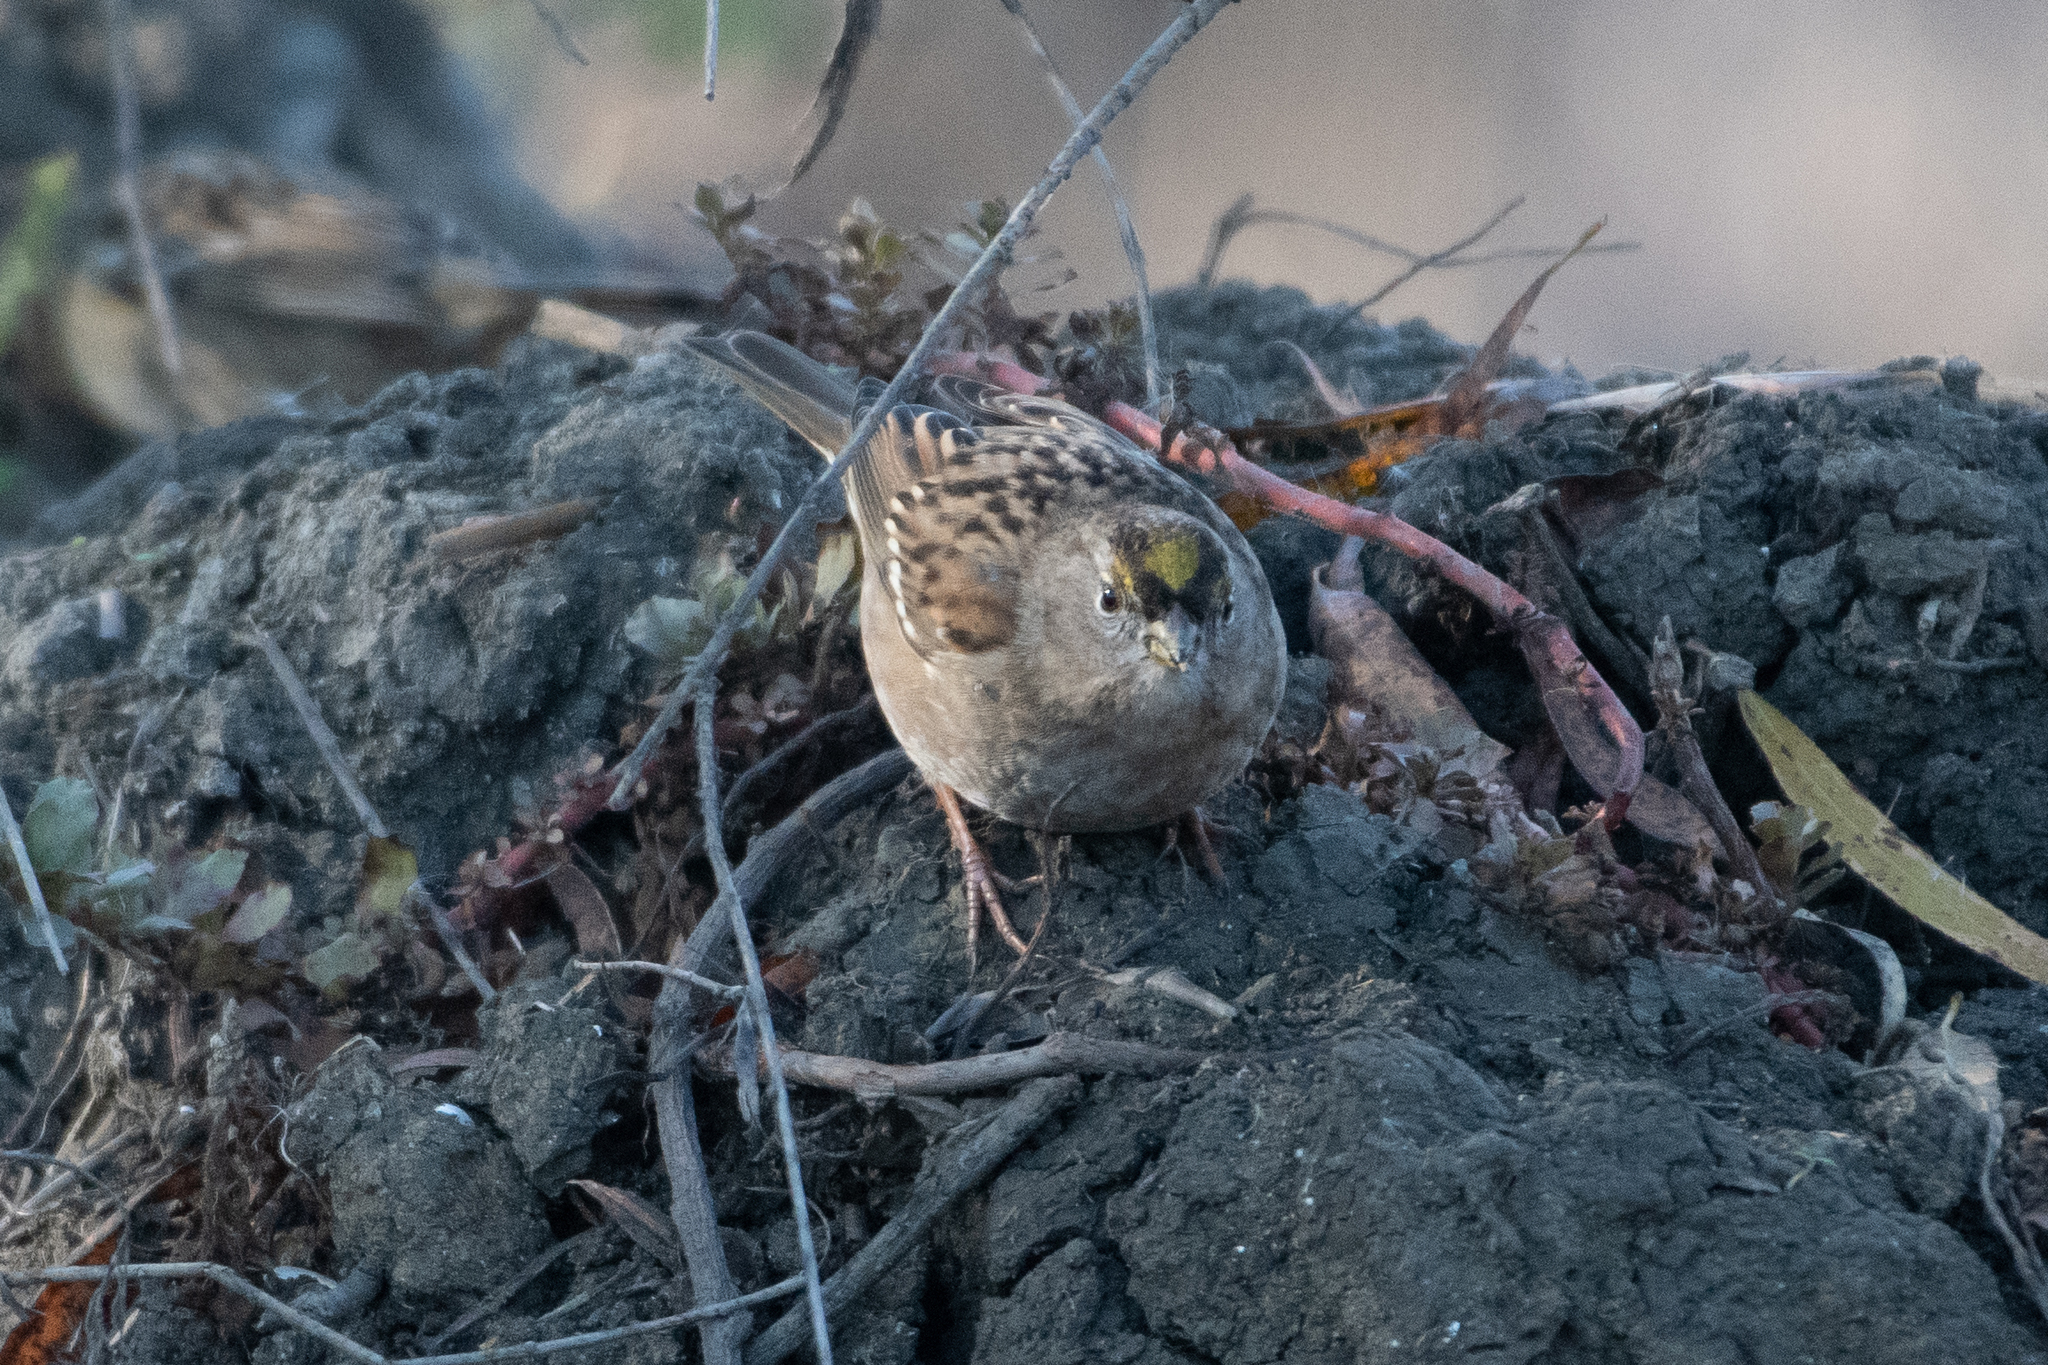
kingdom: Animalia
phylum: Chordata
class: Aves
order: Passeriformes
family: Passerellidae
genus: Zonotrichia
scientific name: Zonotrichia atricapilla
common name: Golden-crowned sparrow
